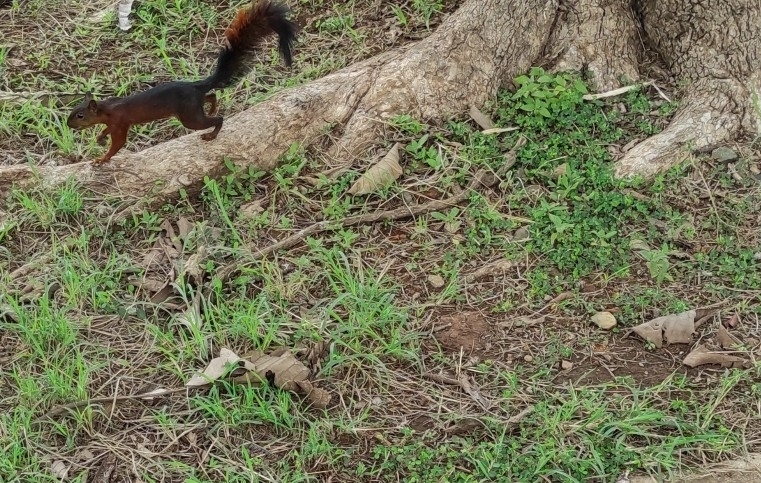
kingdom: Animalia
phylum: Chordata
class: Mammalia
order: Rodentia
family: Sciuridae
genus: Sciurus
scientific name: Sciurus granatensis
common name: Red-tailed squirrel
